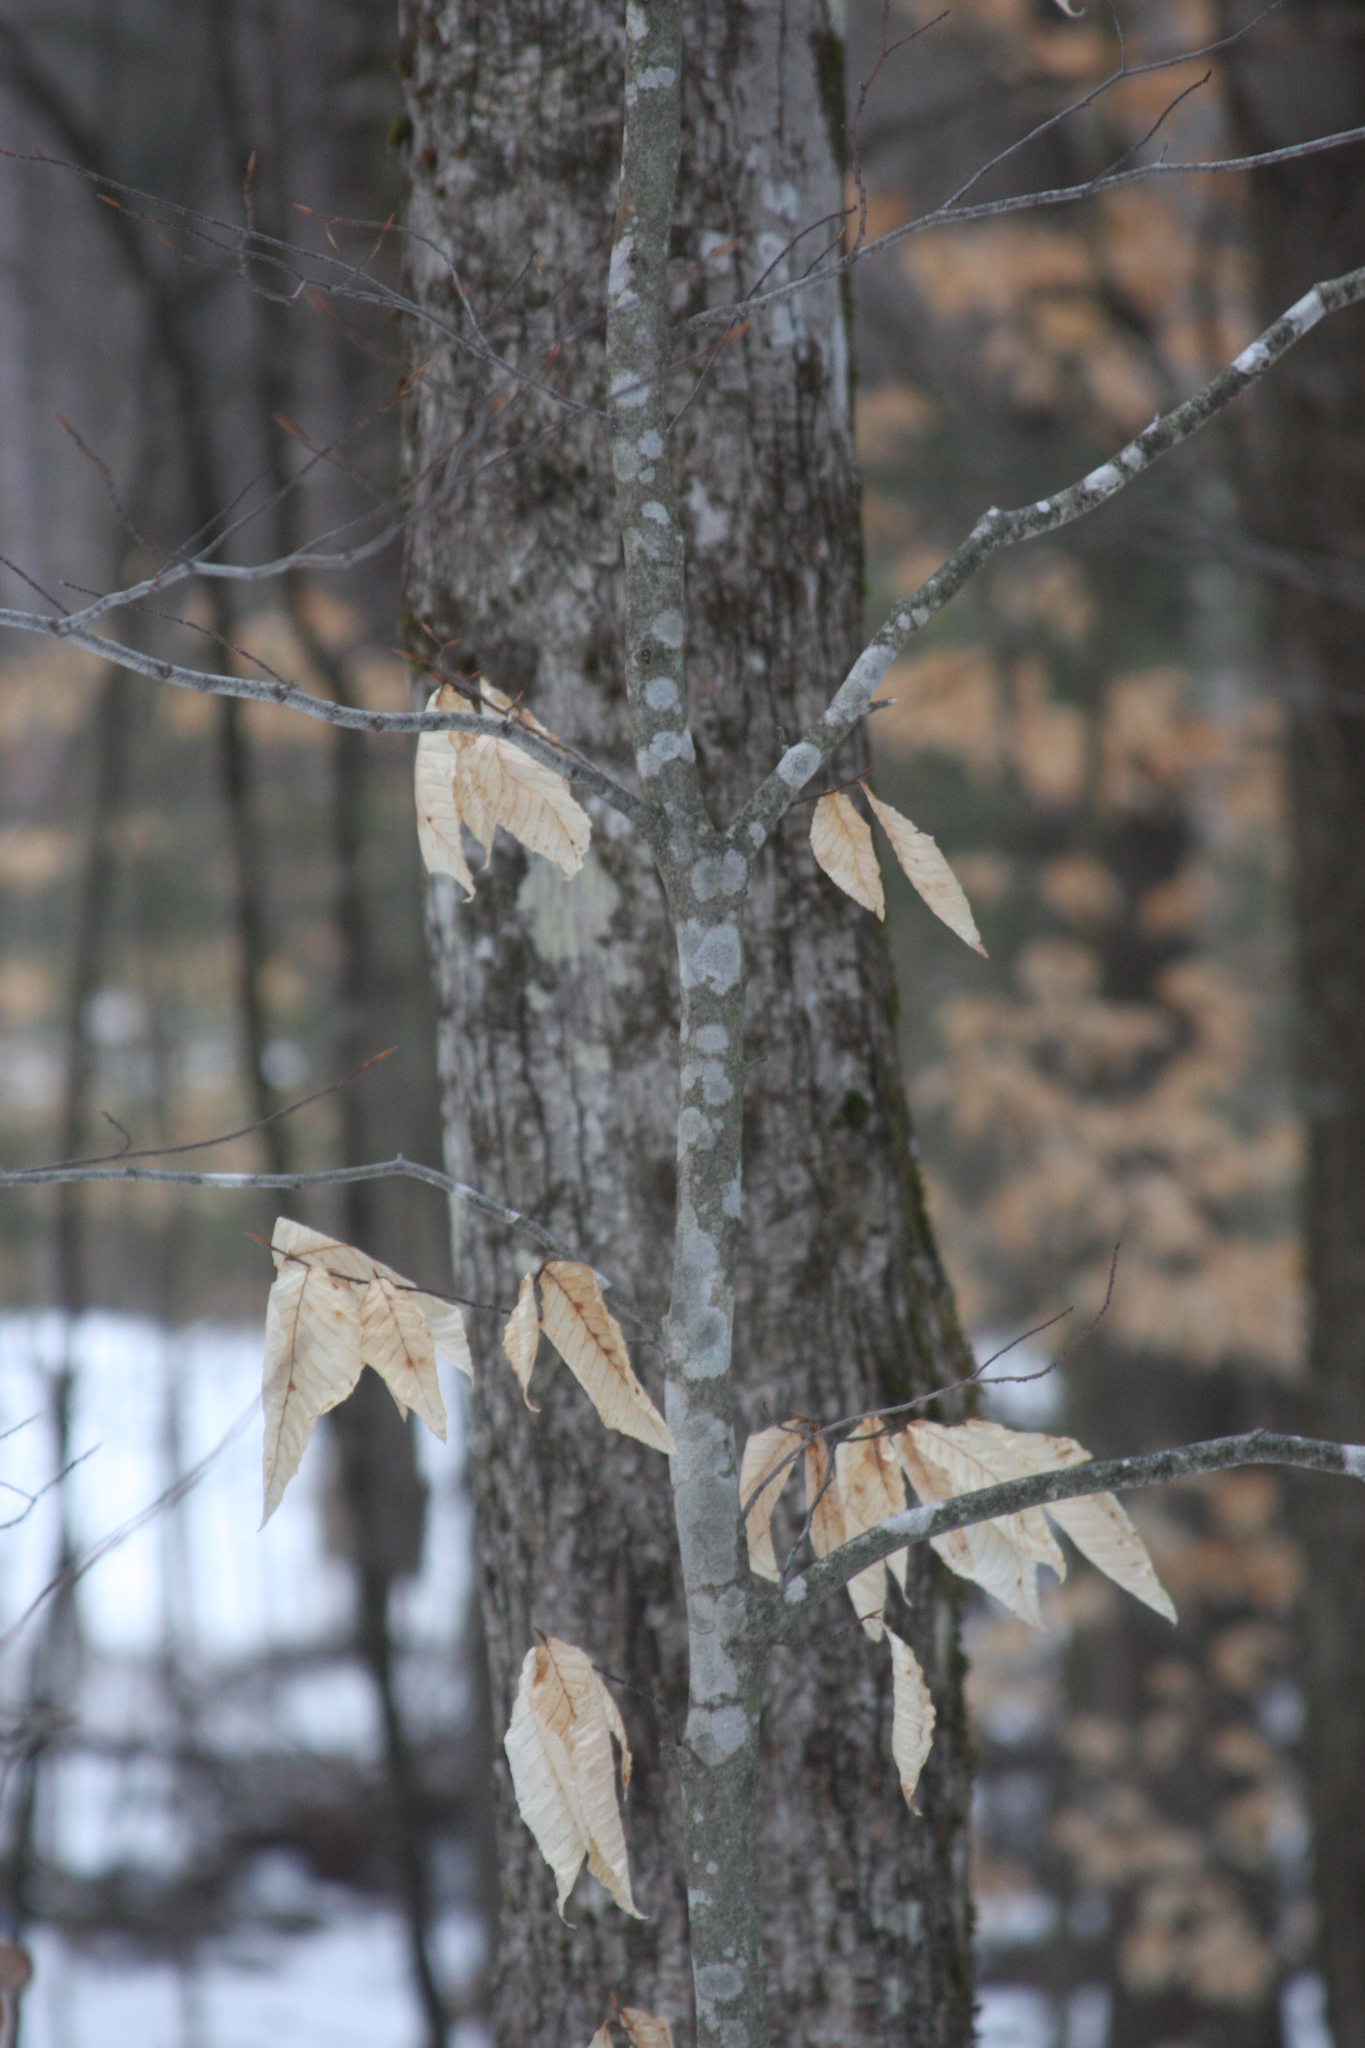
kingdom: Plantae
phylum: Tracheophyta
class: Magnoliopsida
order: Fagales
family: Fagaceae
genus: Fagus
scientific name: Fagus grandifolia
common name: American beech
